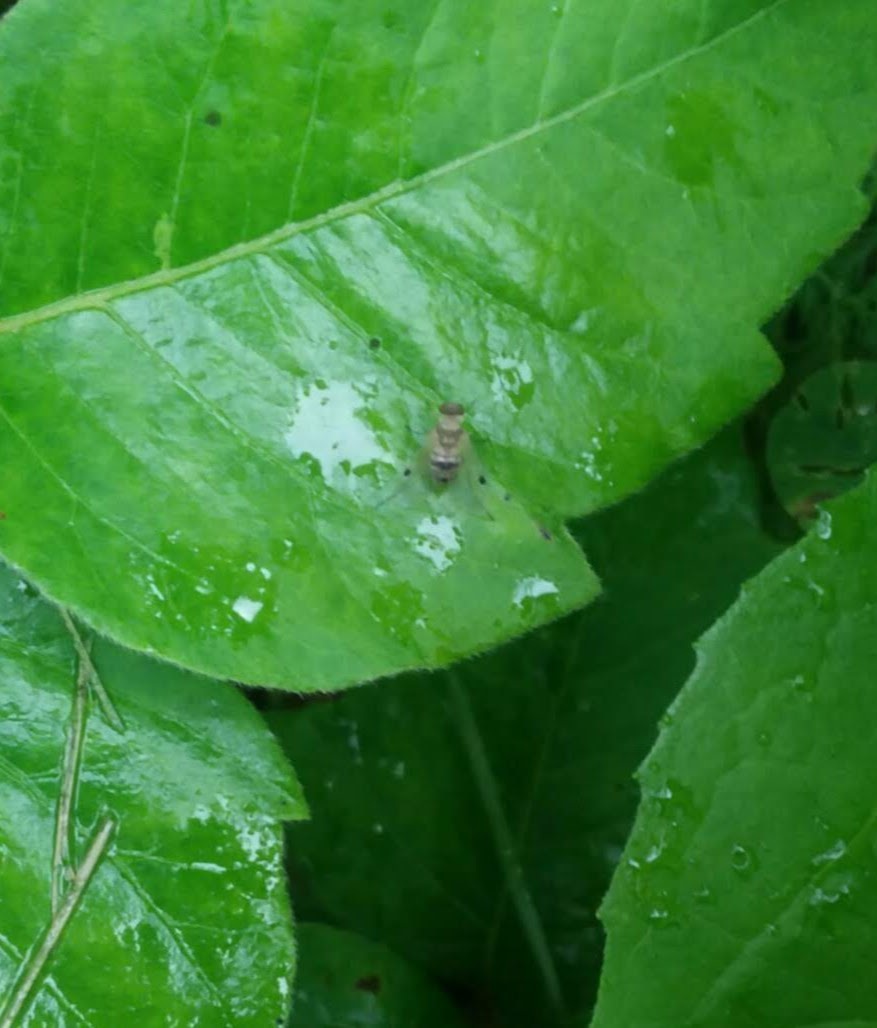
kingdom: Animalia
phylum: Arthropoda
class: Insecta
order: Diptera
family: Rhagionidae
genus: Chrysopilus
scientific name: Chrysopilus modestus
